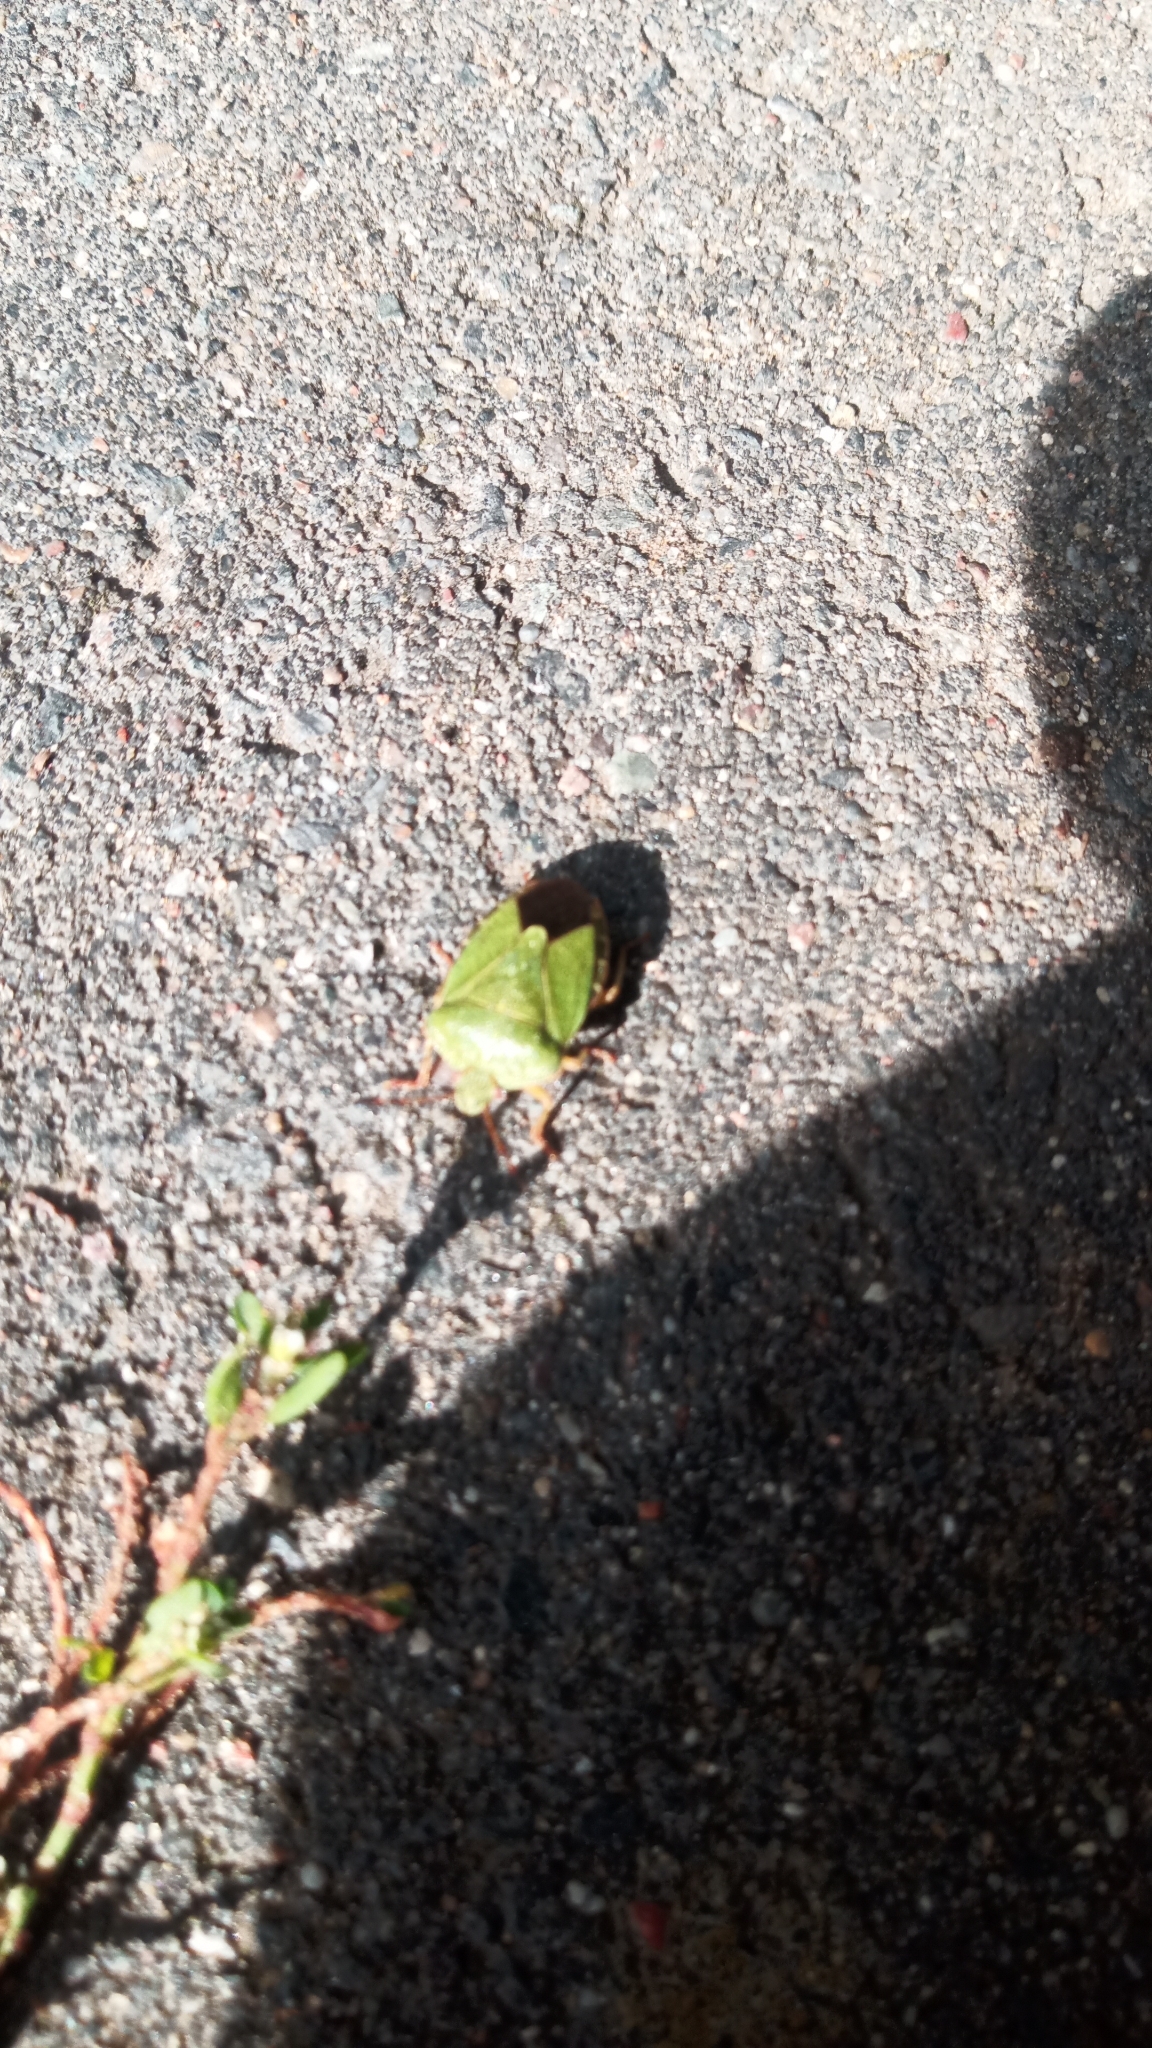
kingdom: Animalia
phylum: Arthropoda
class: Insecta
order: Hemiptera
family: Pentatomidae
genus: Palomena
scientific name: Palomena prasina
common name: Green shieldbug
